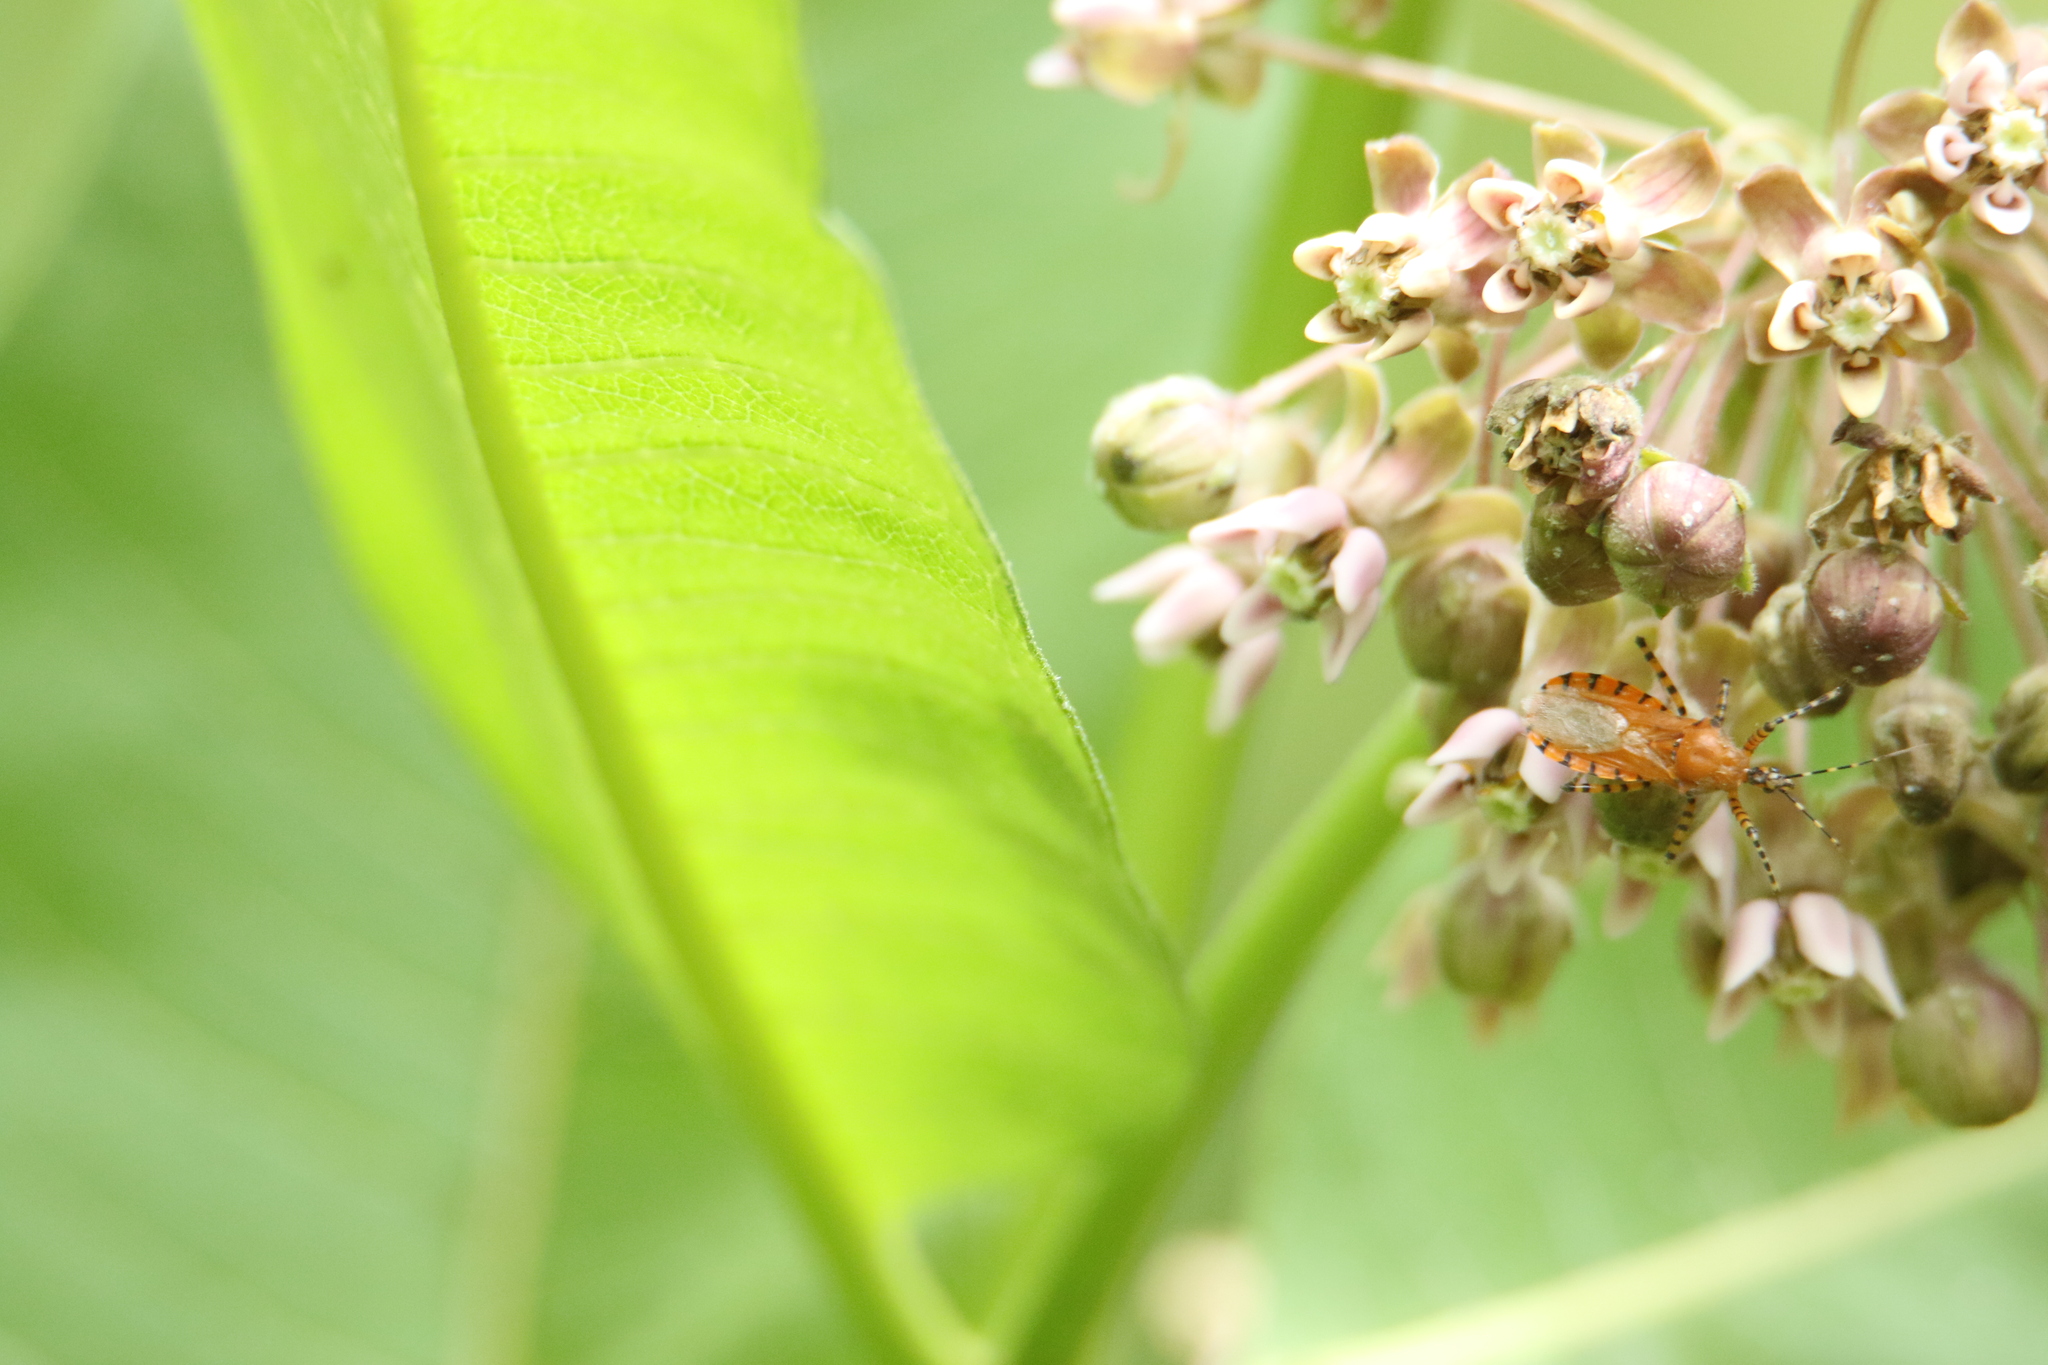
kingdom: Animalia
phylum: Arthropoda
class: Insecta
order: Hemiptera
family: Reduviidae
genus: Pselliopus
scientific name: Pselliopus barberi
